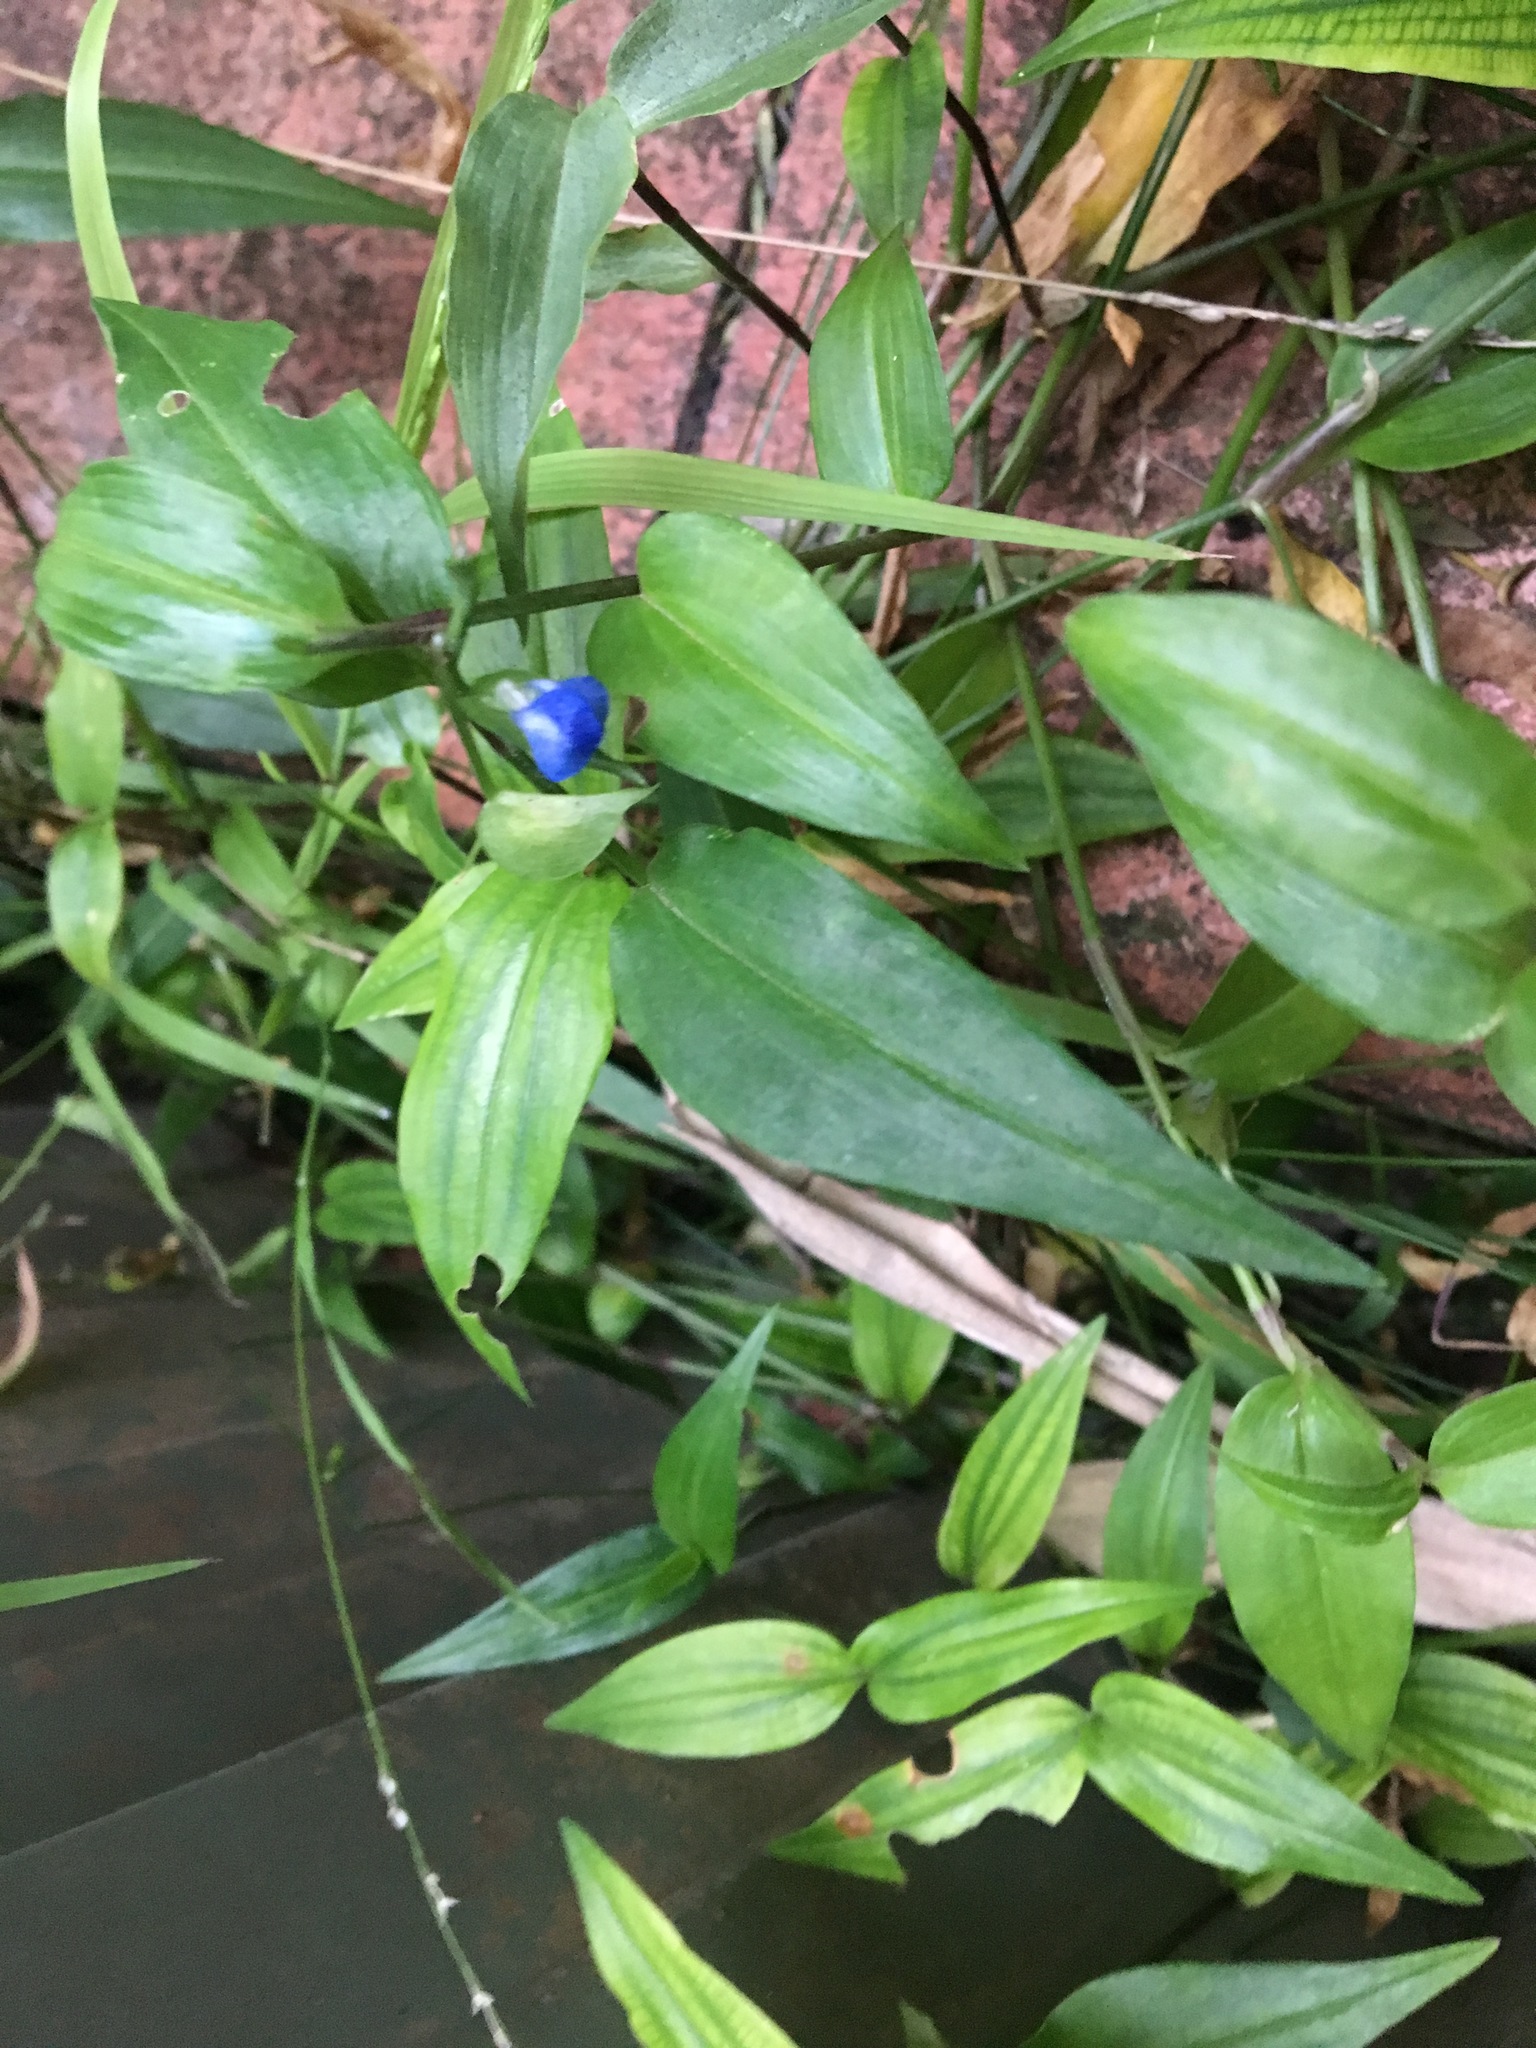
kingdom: Plantae
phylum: Tracheophyta
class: Liliopsida
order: Commelinales
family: Commelinaceae
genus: Commelina
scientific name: Commelina cyanea
